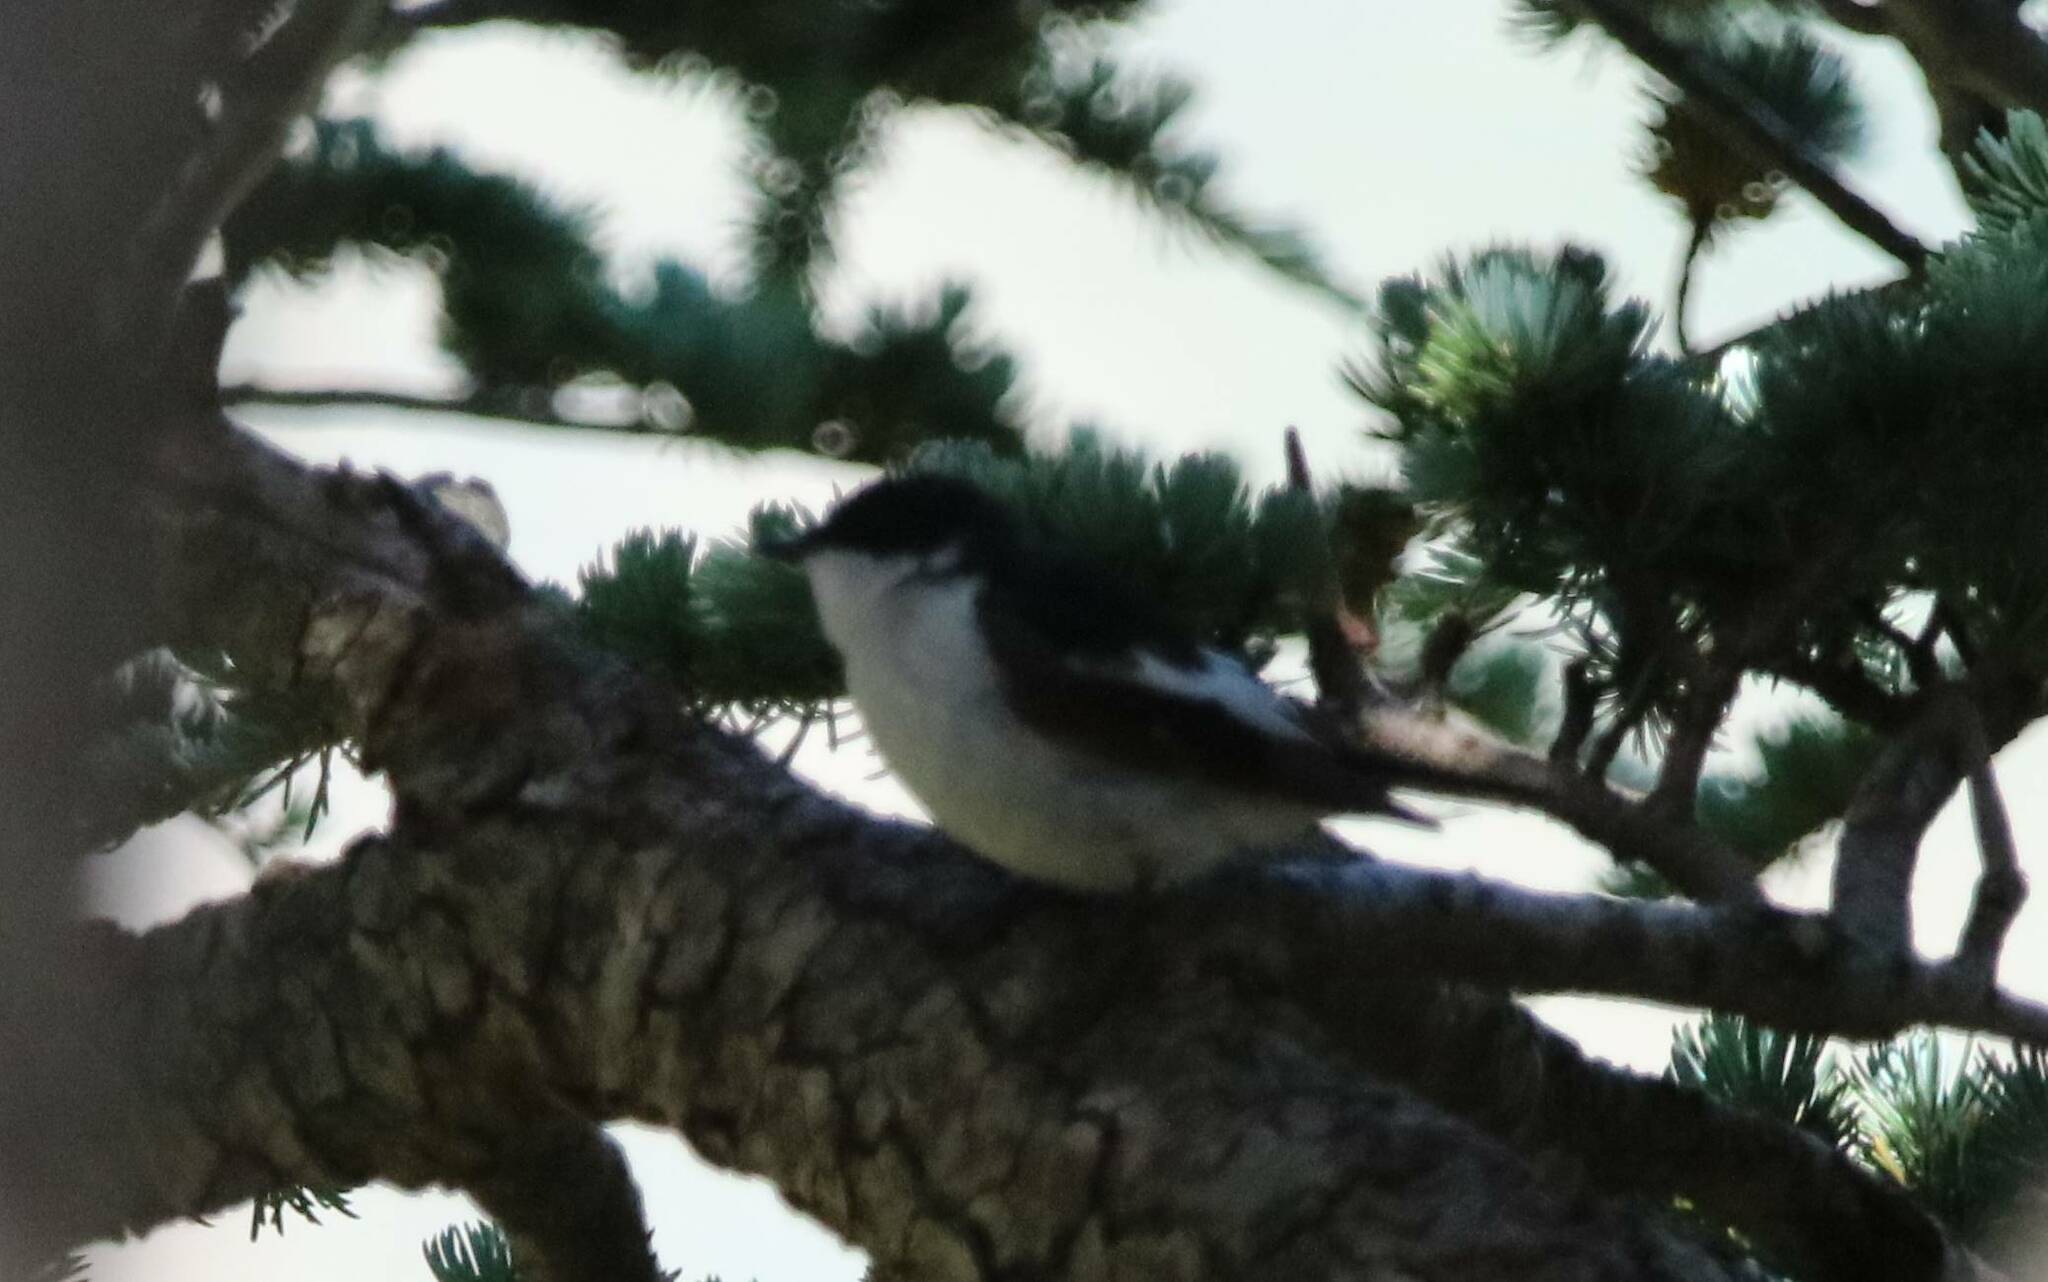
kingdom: Animalia
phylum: Chordata
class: Aves
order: Passeriformes
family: Muscicapidae
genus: Ficedula
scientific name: Ficedula speculigera
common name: Atlas pied flycatcher
